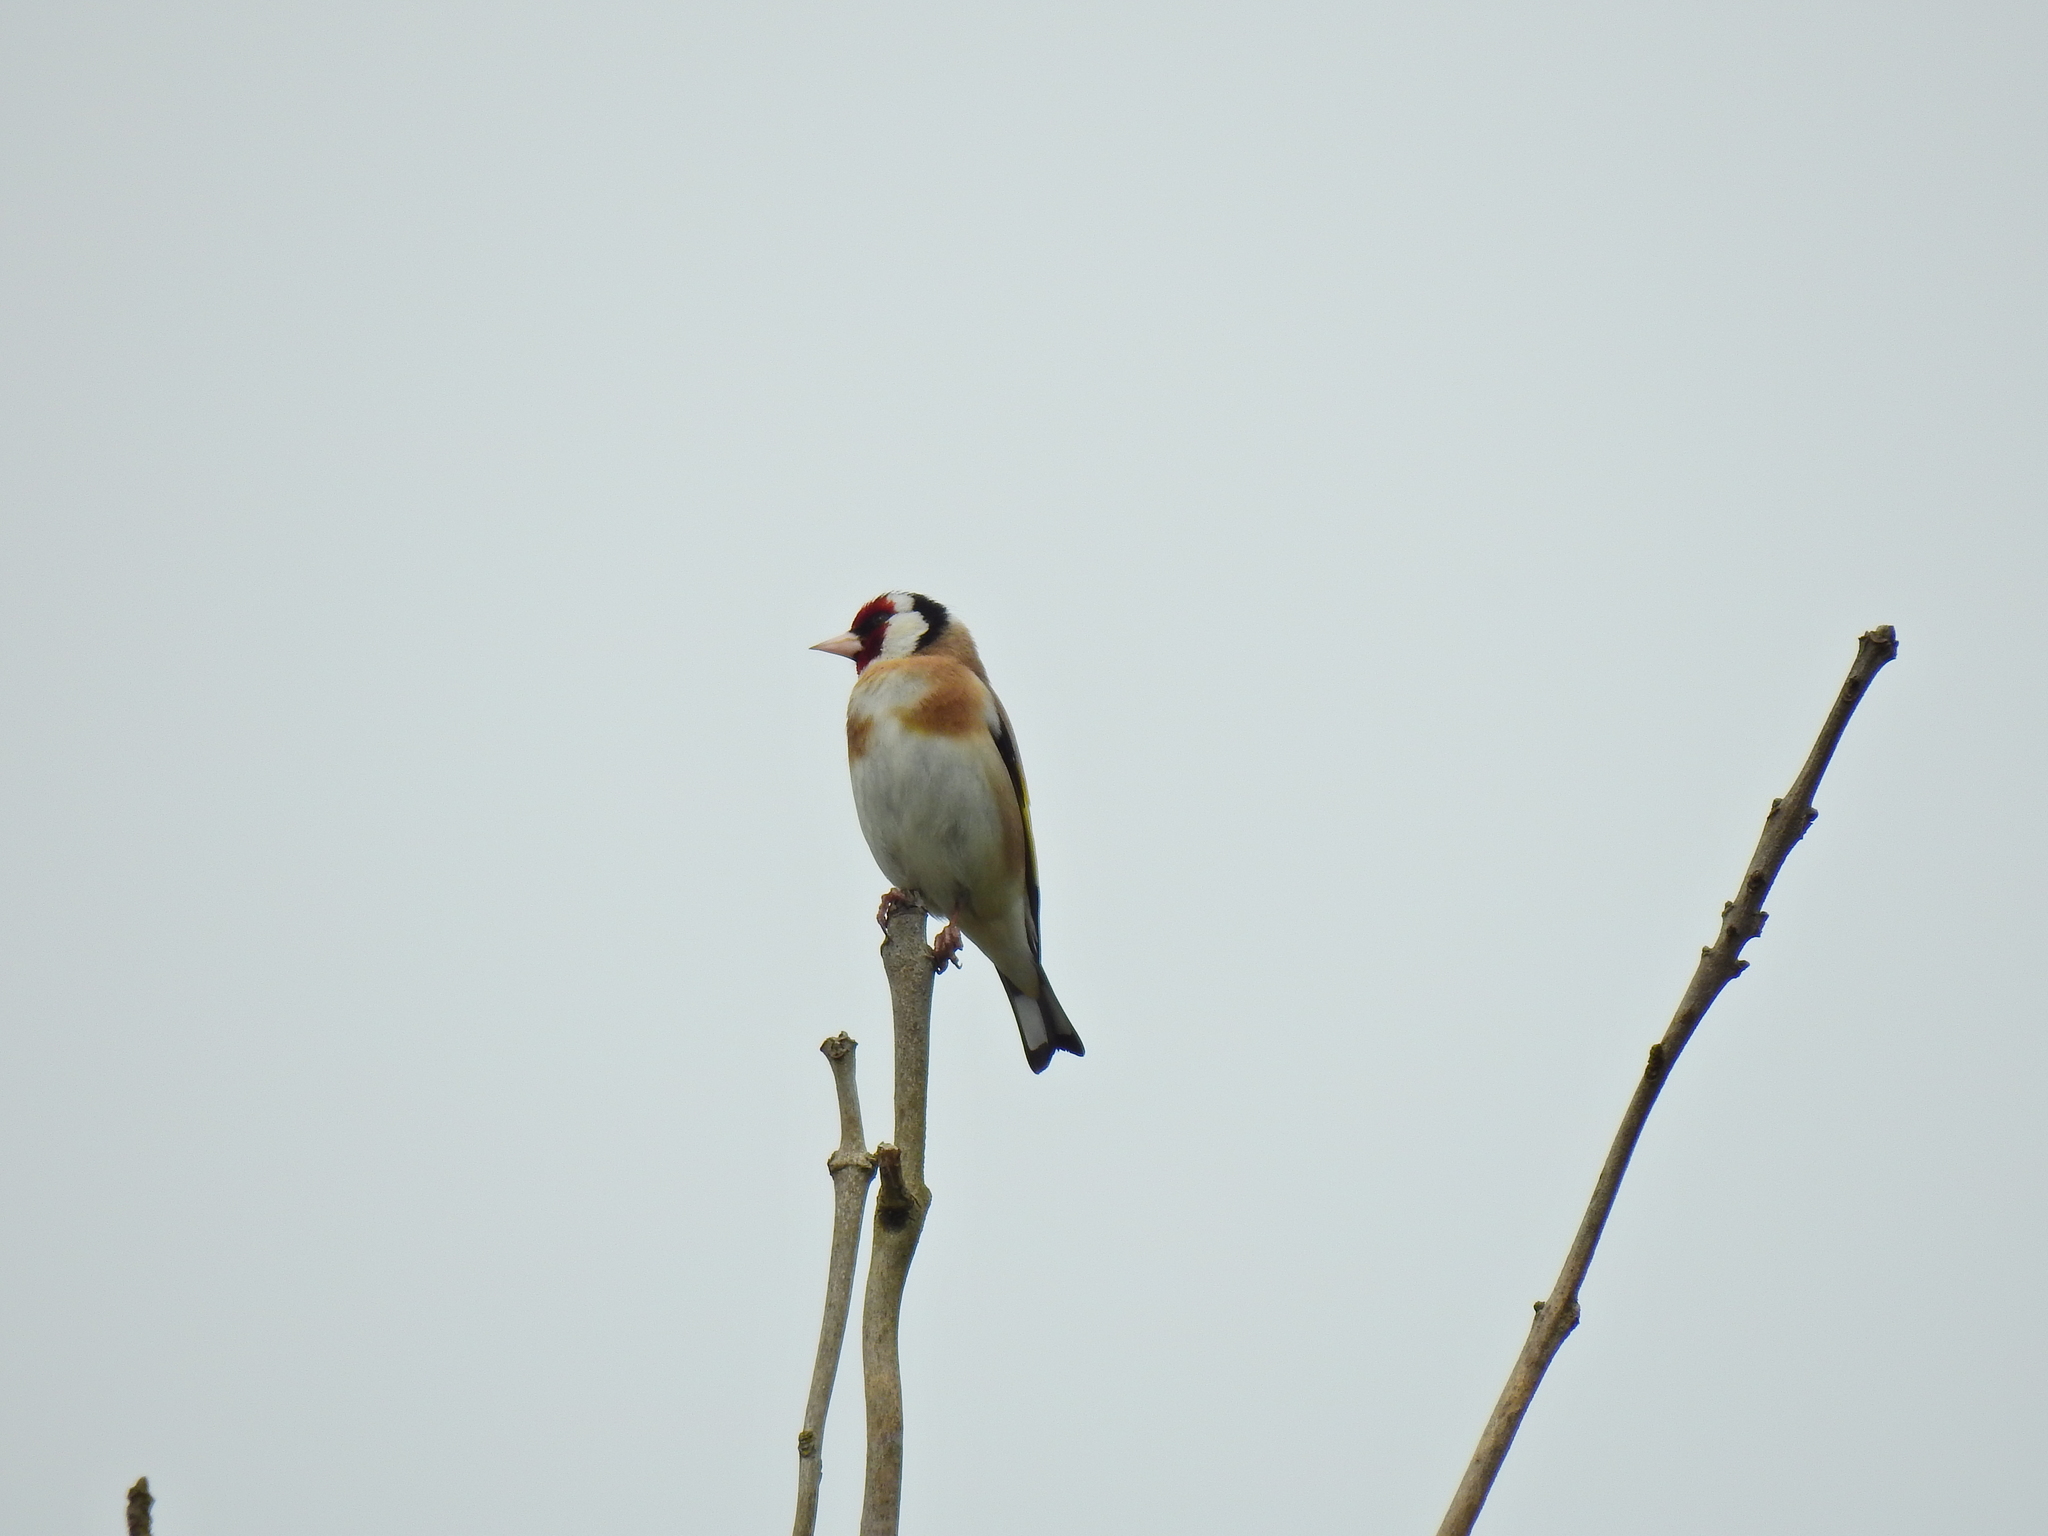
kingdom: Animalia
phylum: Chordata
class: Aves
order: Passeriformes
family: Fringillidae
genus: Carduelis
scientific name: Carduelis carduelis
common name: European goldfinch
